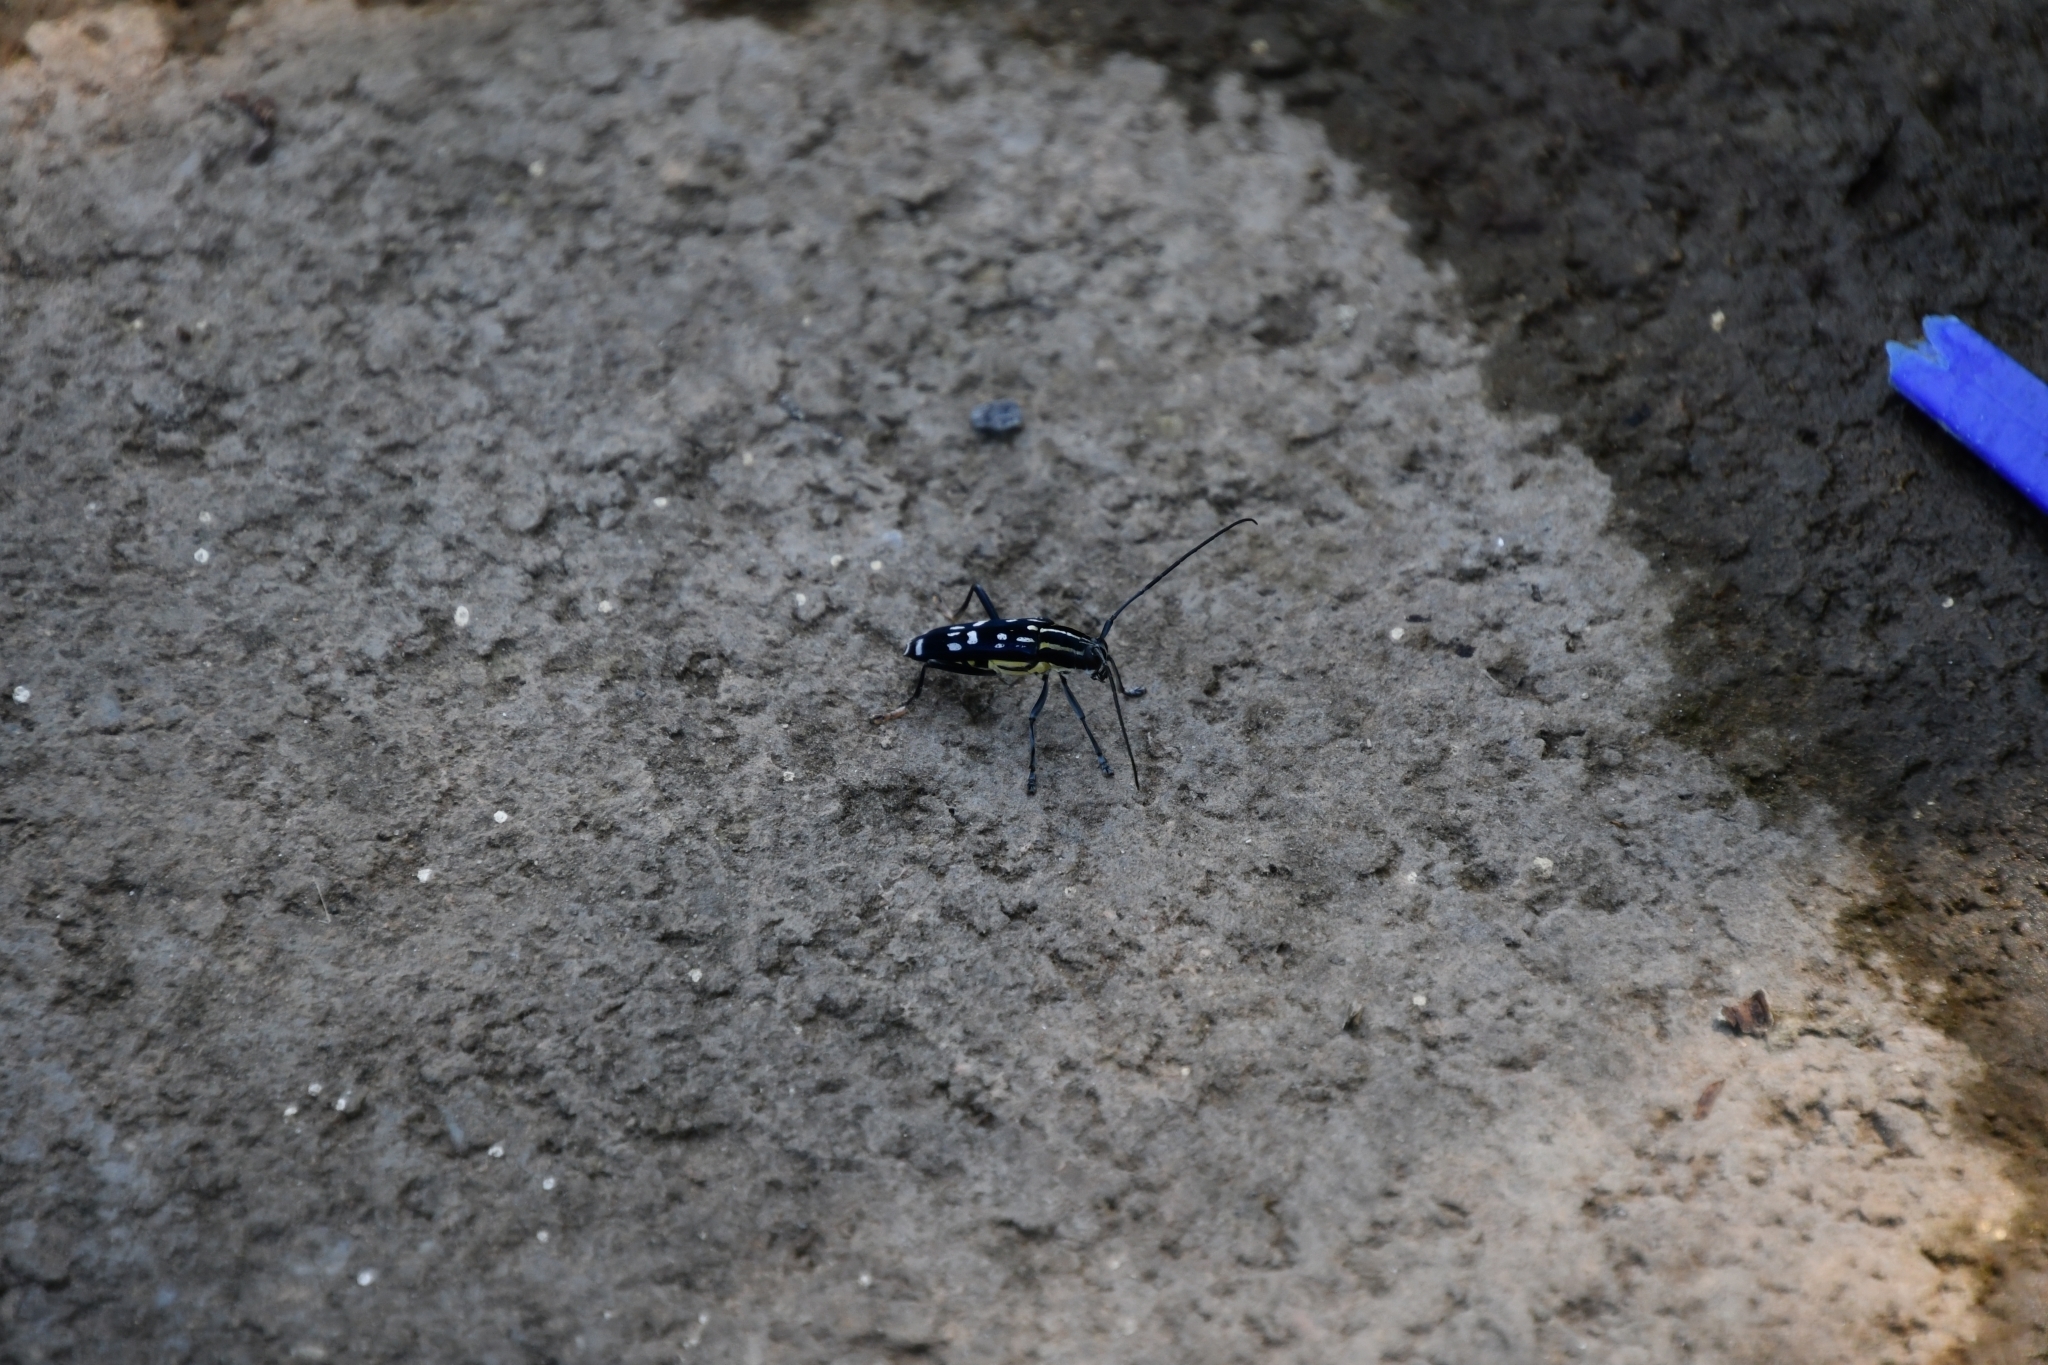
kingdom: Animalia
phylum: Arthropoda
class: Insecta
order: Coleoptera
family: Cerambycidae
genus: Glenea
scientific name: Glenea elegans
